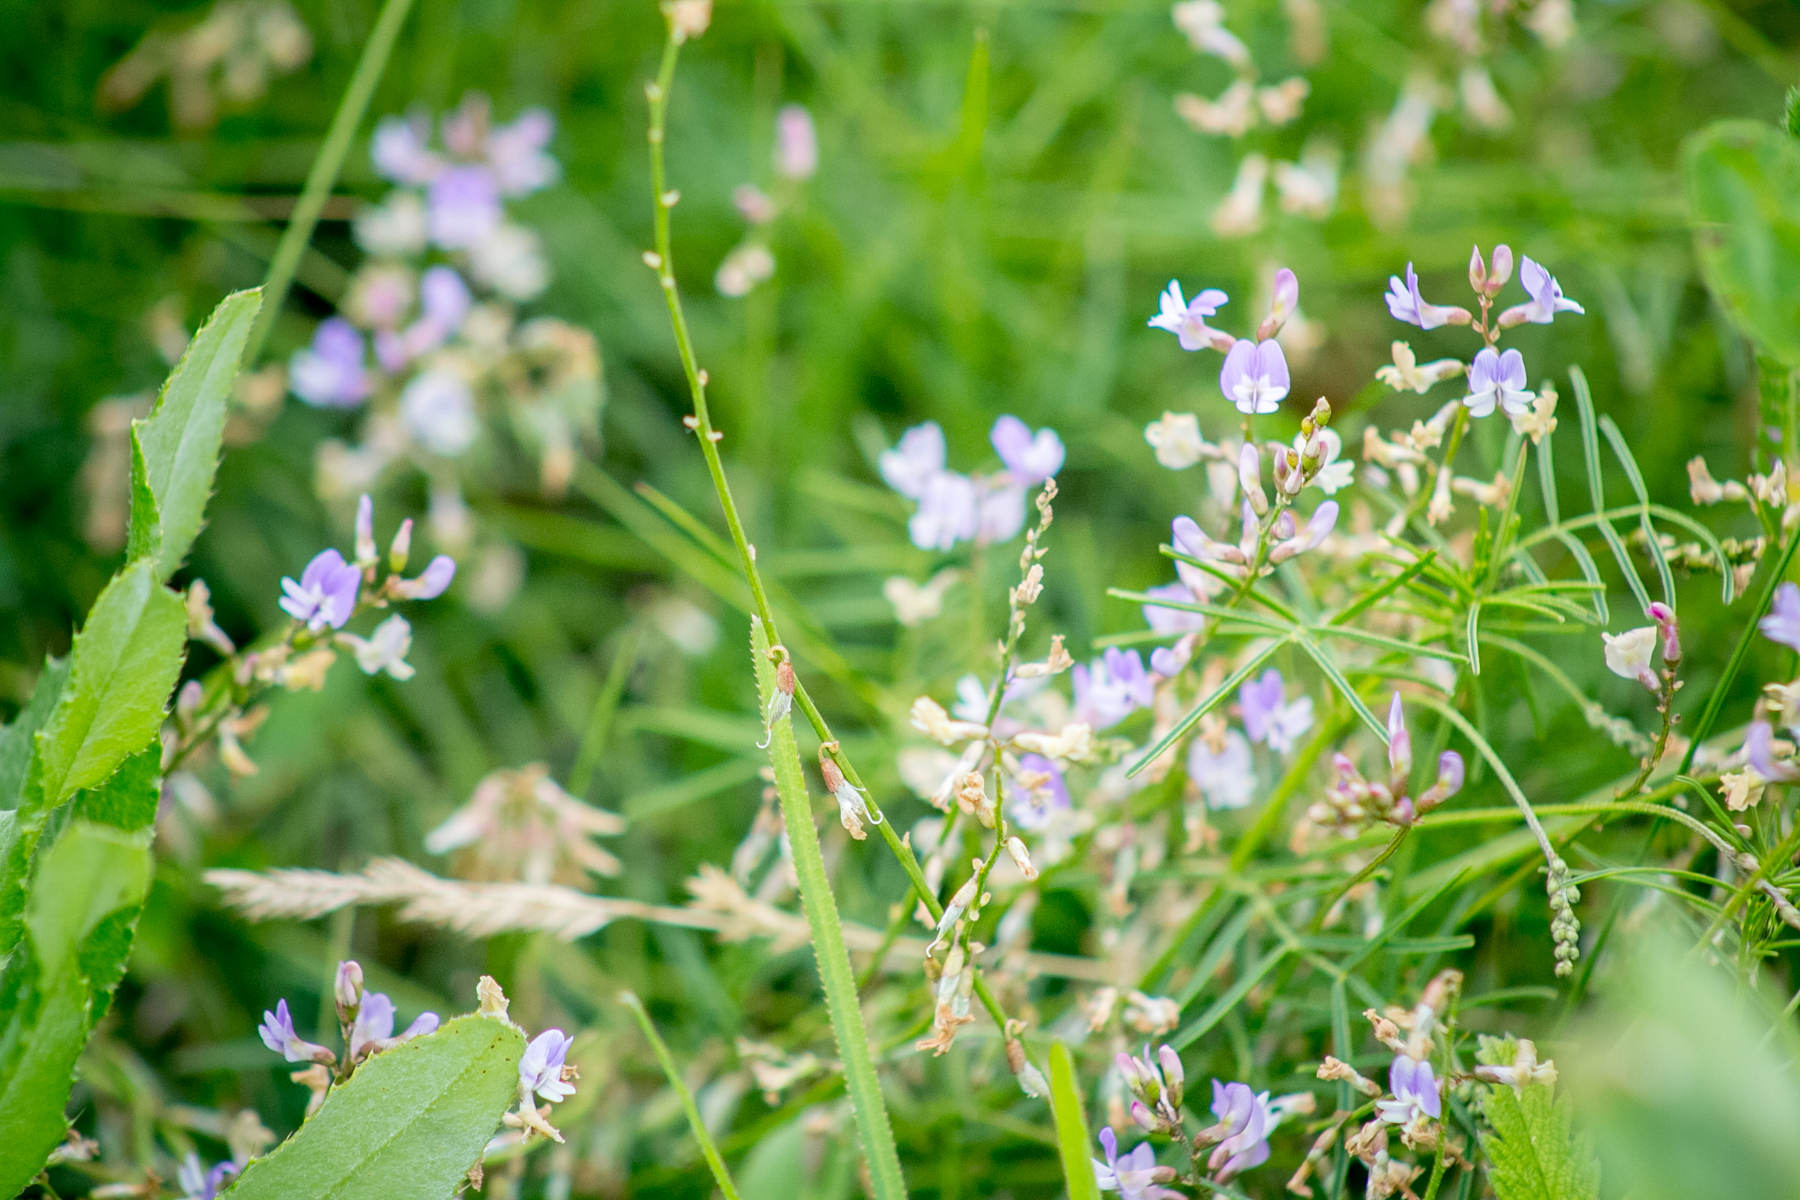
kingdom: Plantae
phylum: Tracheophyta
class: Magnoliopsida
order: Fabales
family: Fabaceae
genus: Astragalus
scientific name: Astragalus austriacus
